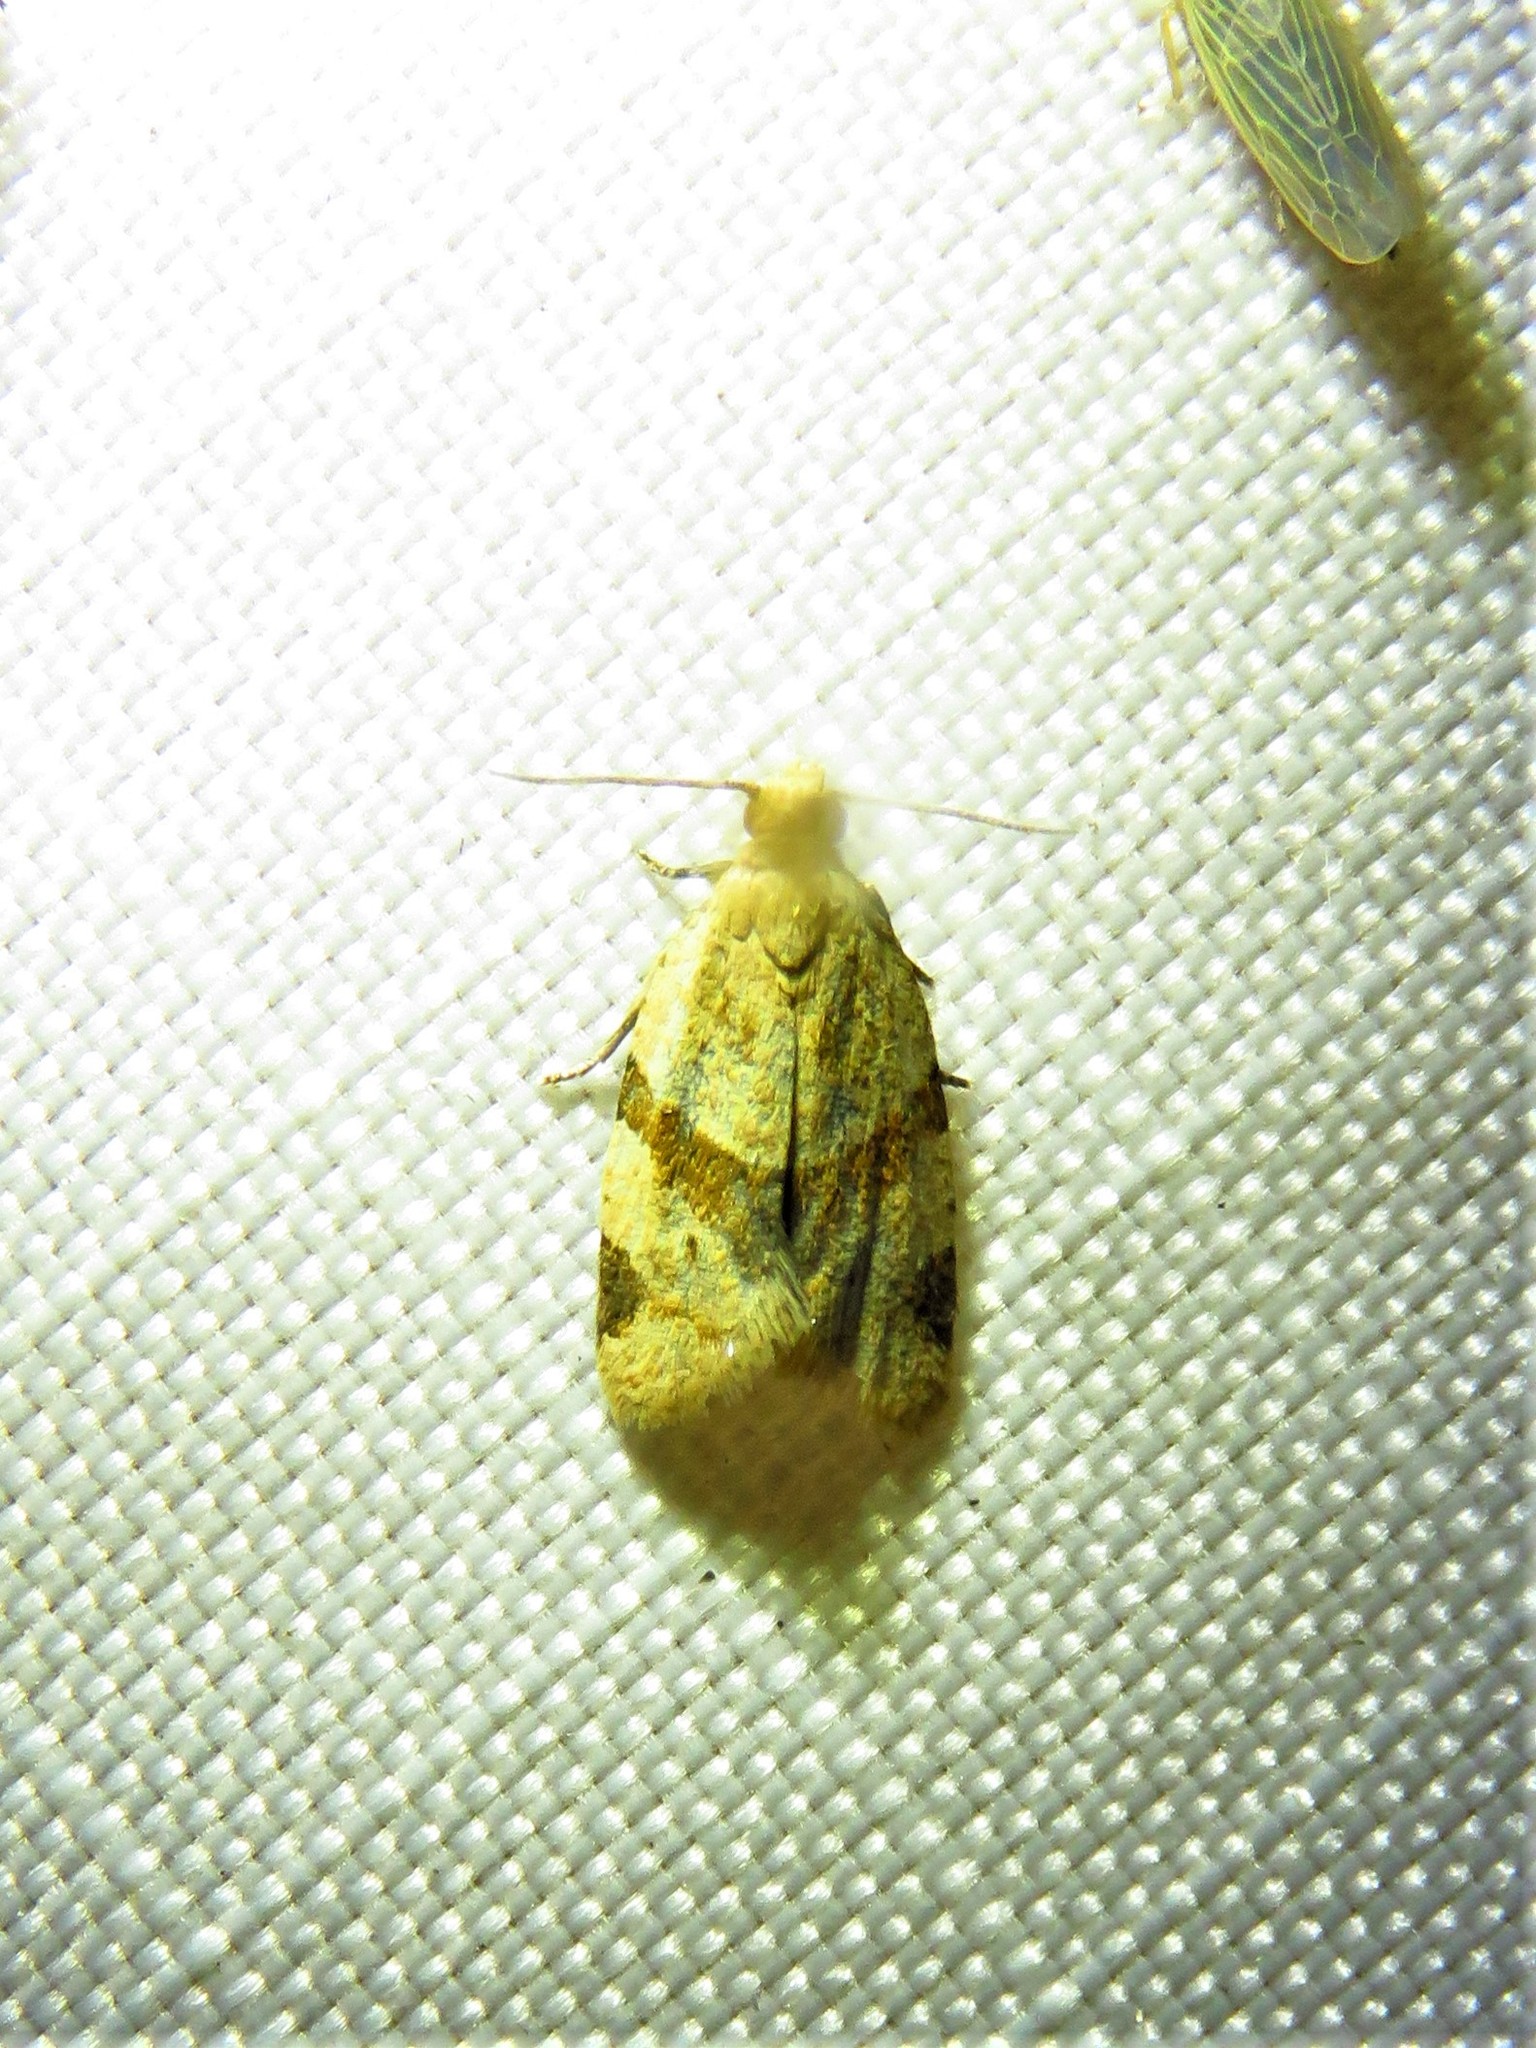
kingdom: Animalia
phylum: Arthropoda
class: Insecta
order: Lepidoptera
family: Tortricidae
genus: Clepsis
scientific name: Clepsis peritana
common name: Garden tortrix
